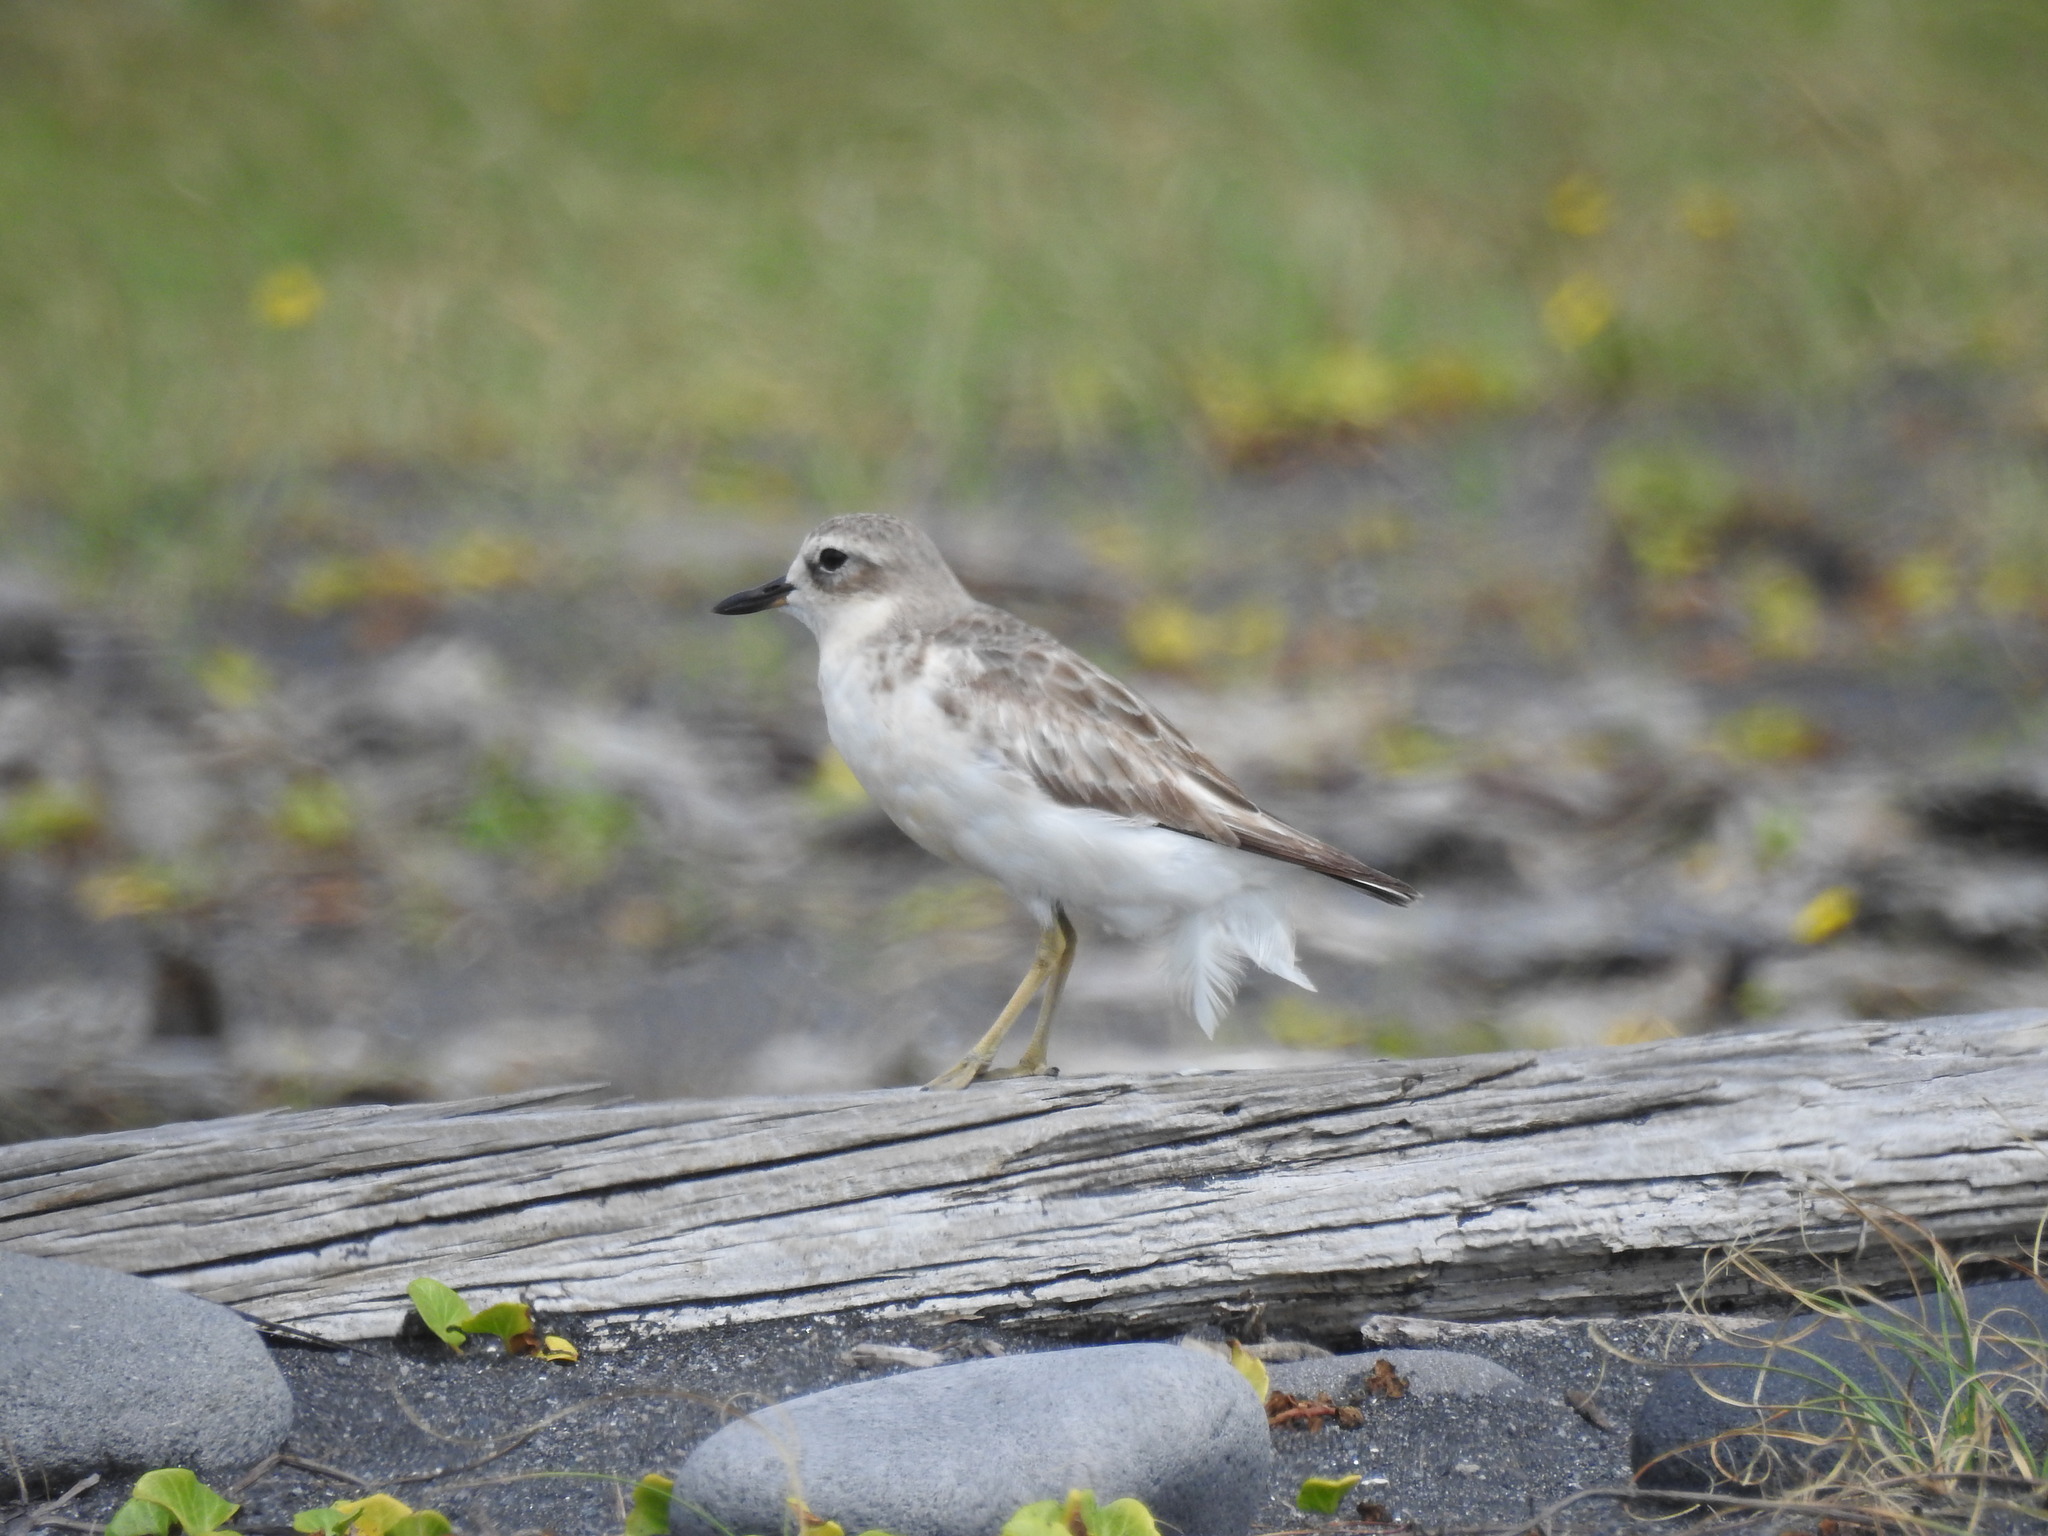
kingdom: Animalia
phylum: Chordata
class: Aves
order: Charadriiformes
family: Charadriidae
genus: Anarhynchus
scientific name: Anarhynchus
